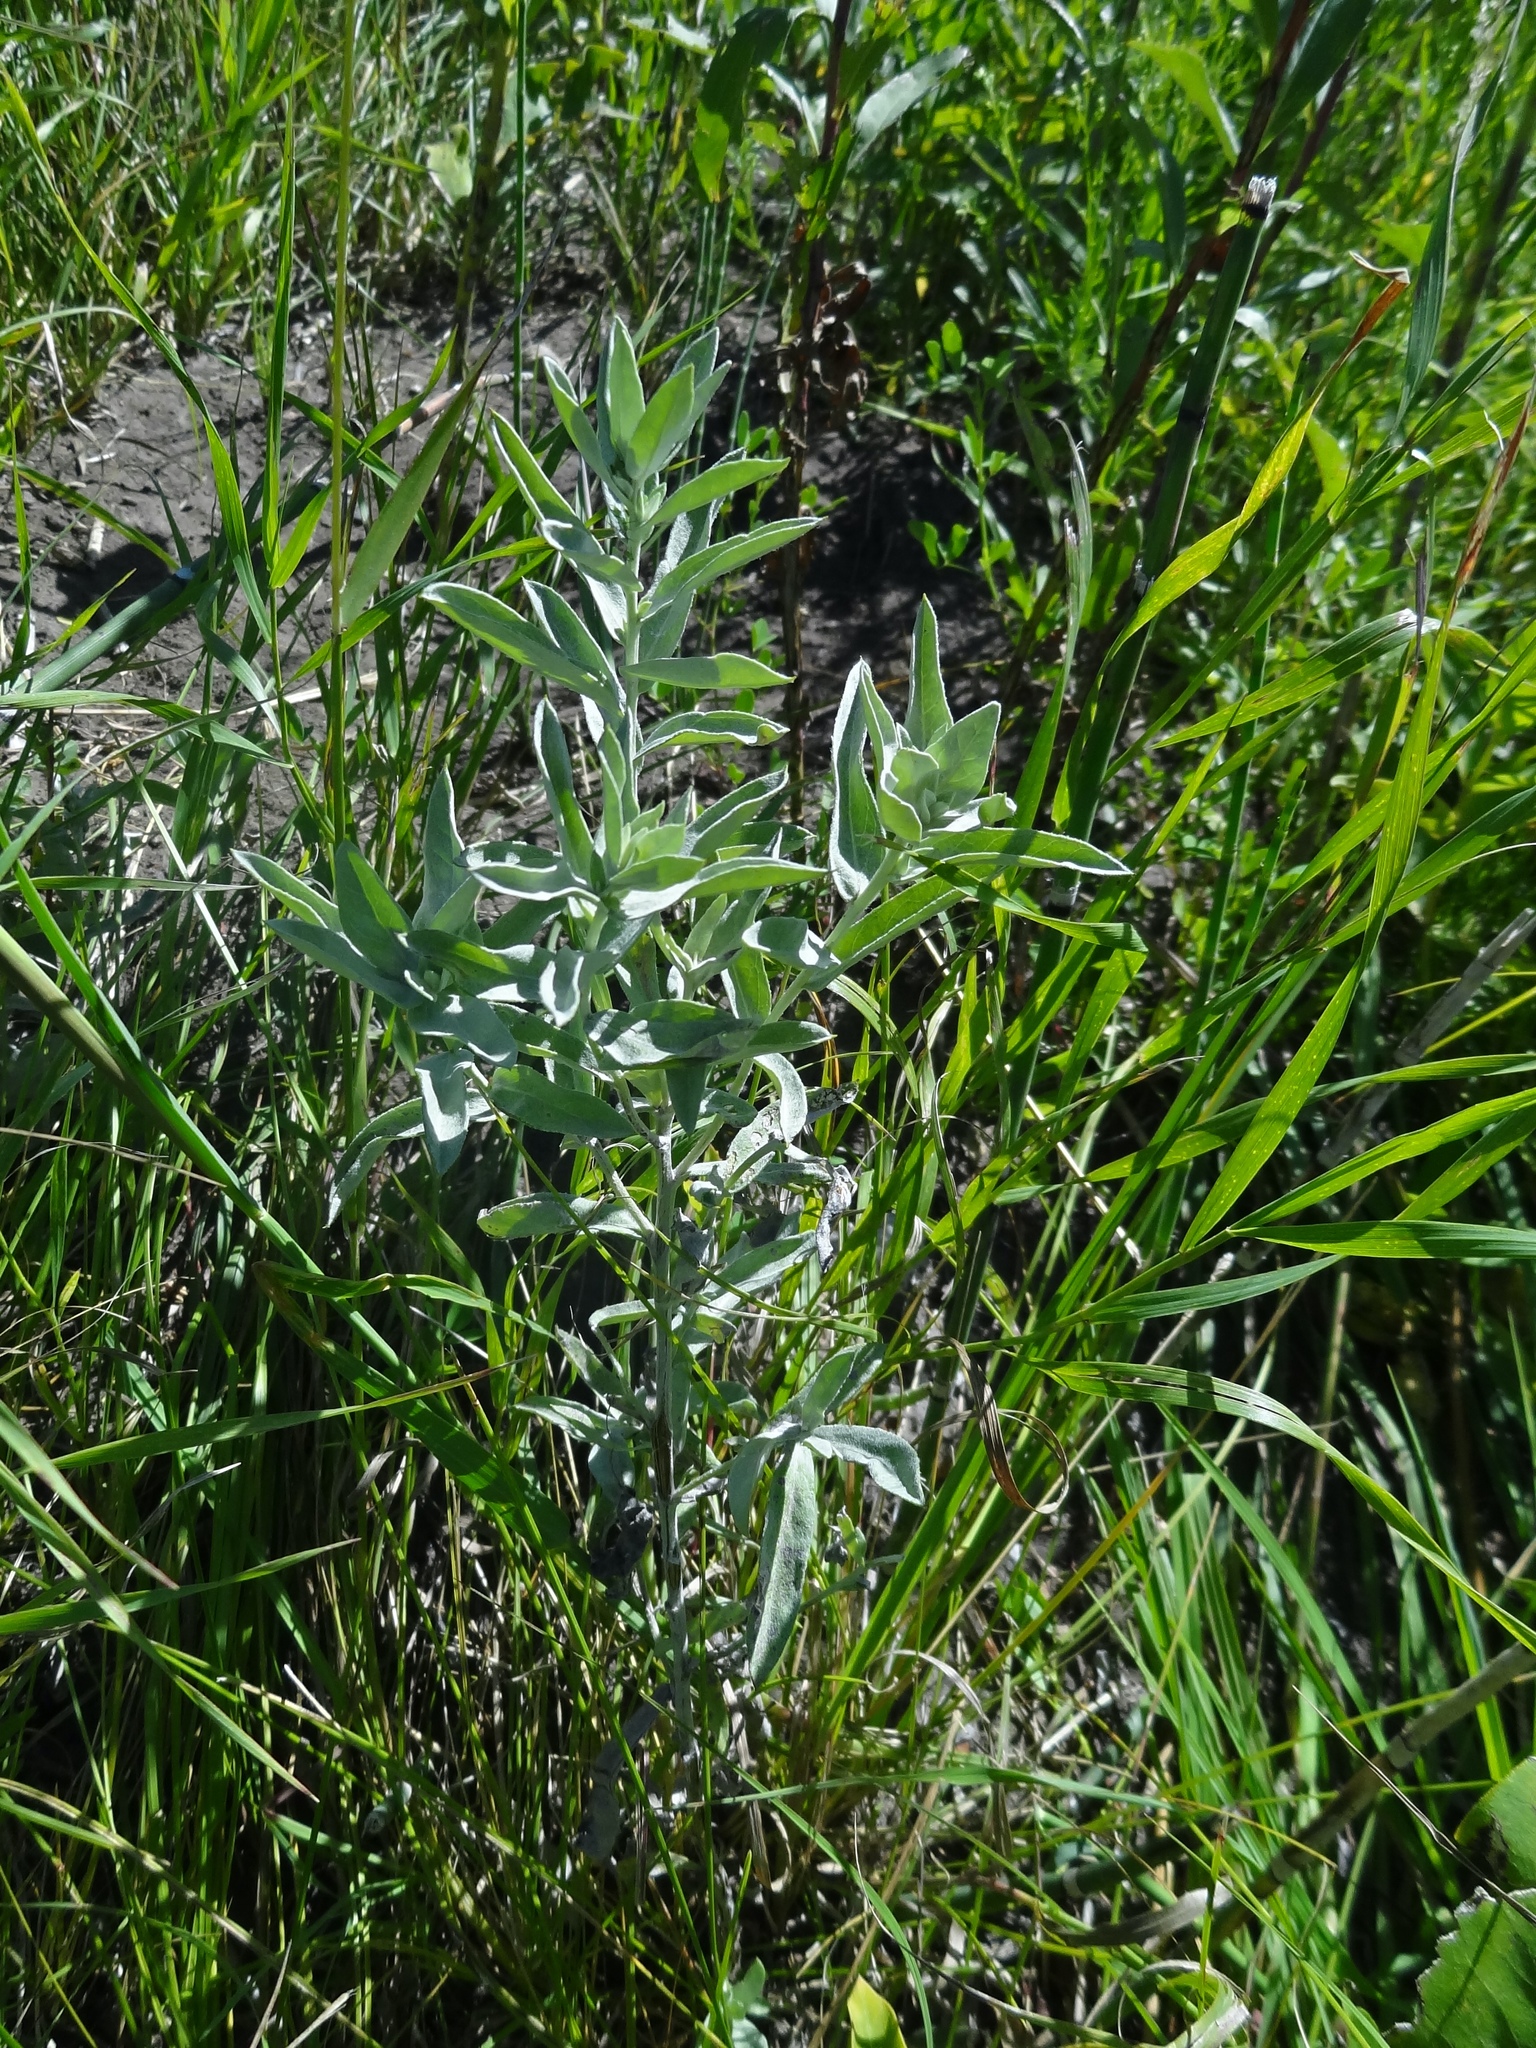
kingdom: Plantae
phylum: Tracheophyta
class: Magnoliopsida
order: Asterales
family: Asteraceae
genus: Artemisia
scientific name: Artemisia ludoviciana
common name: Western mugwort
